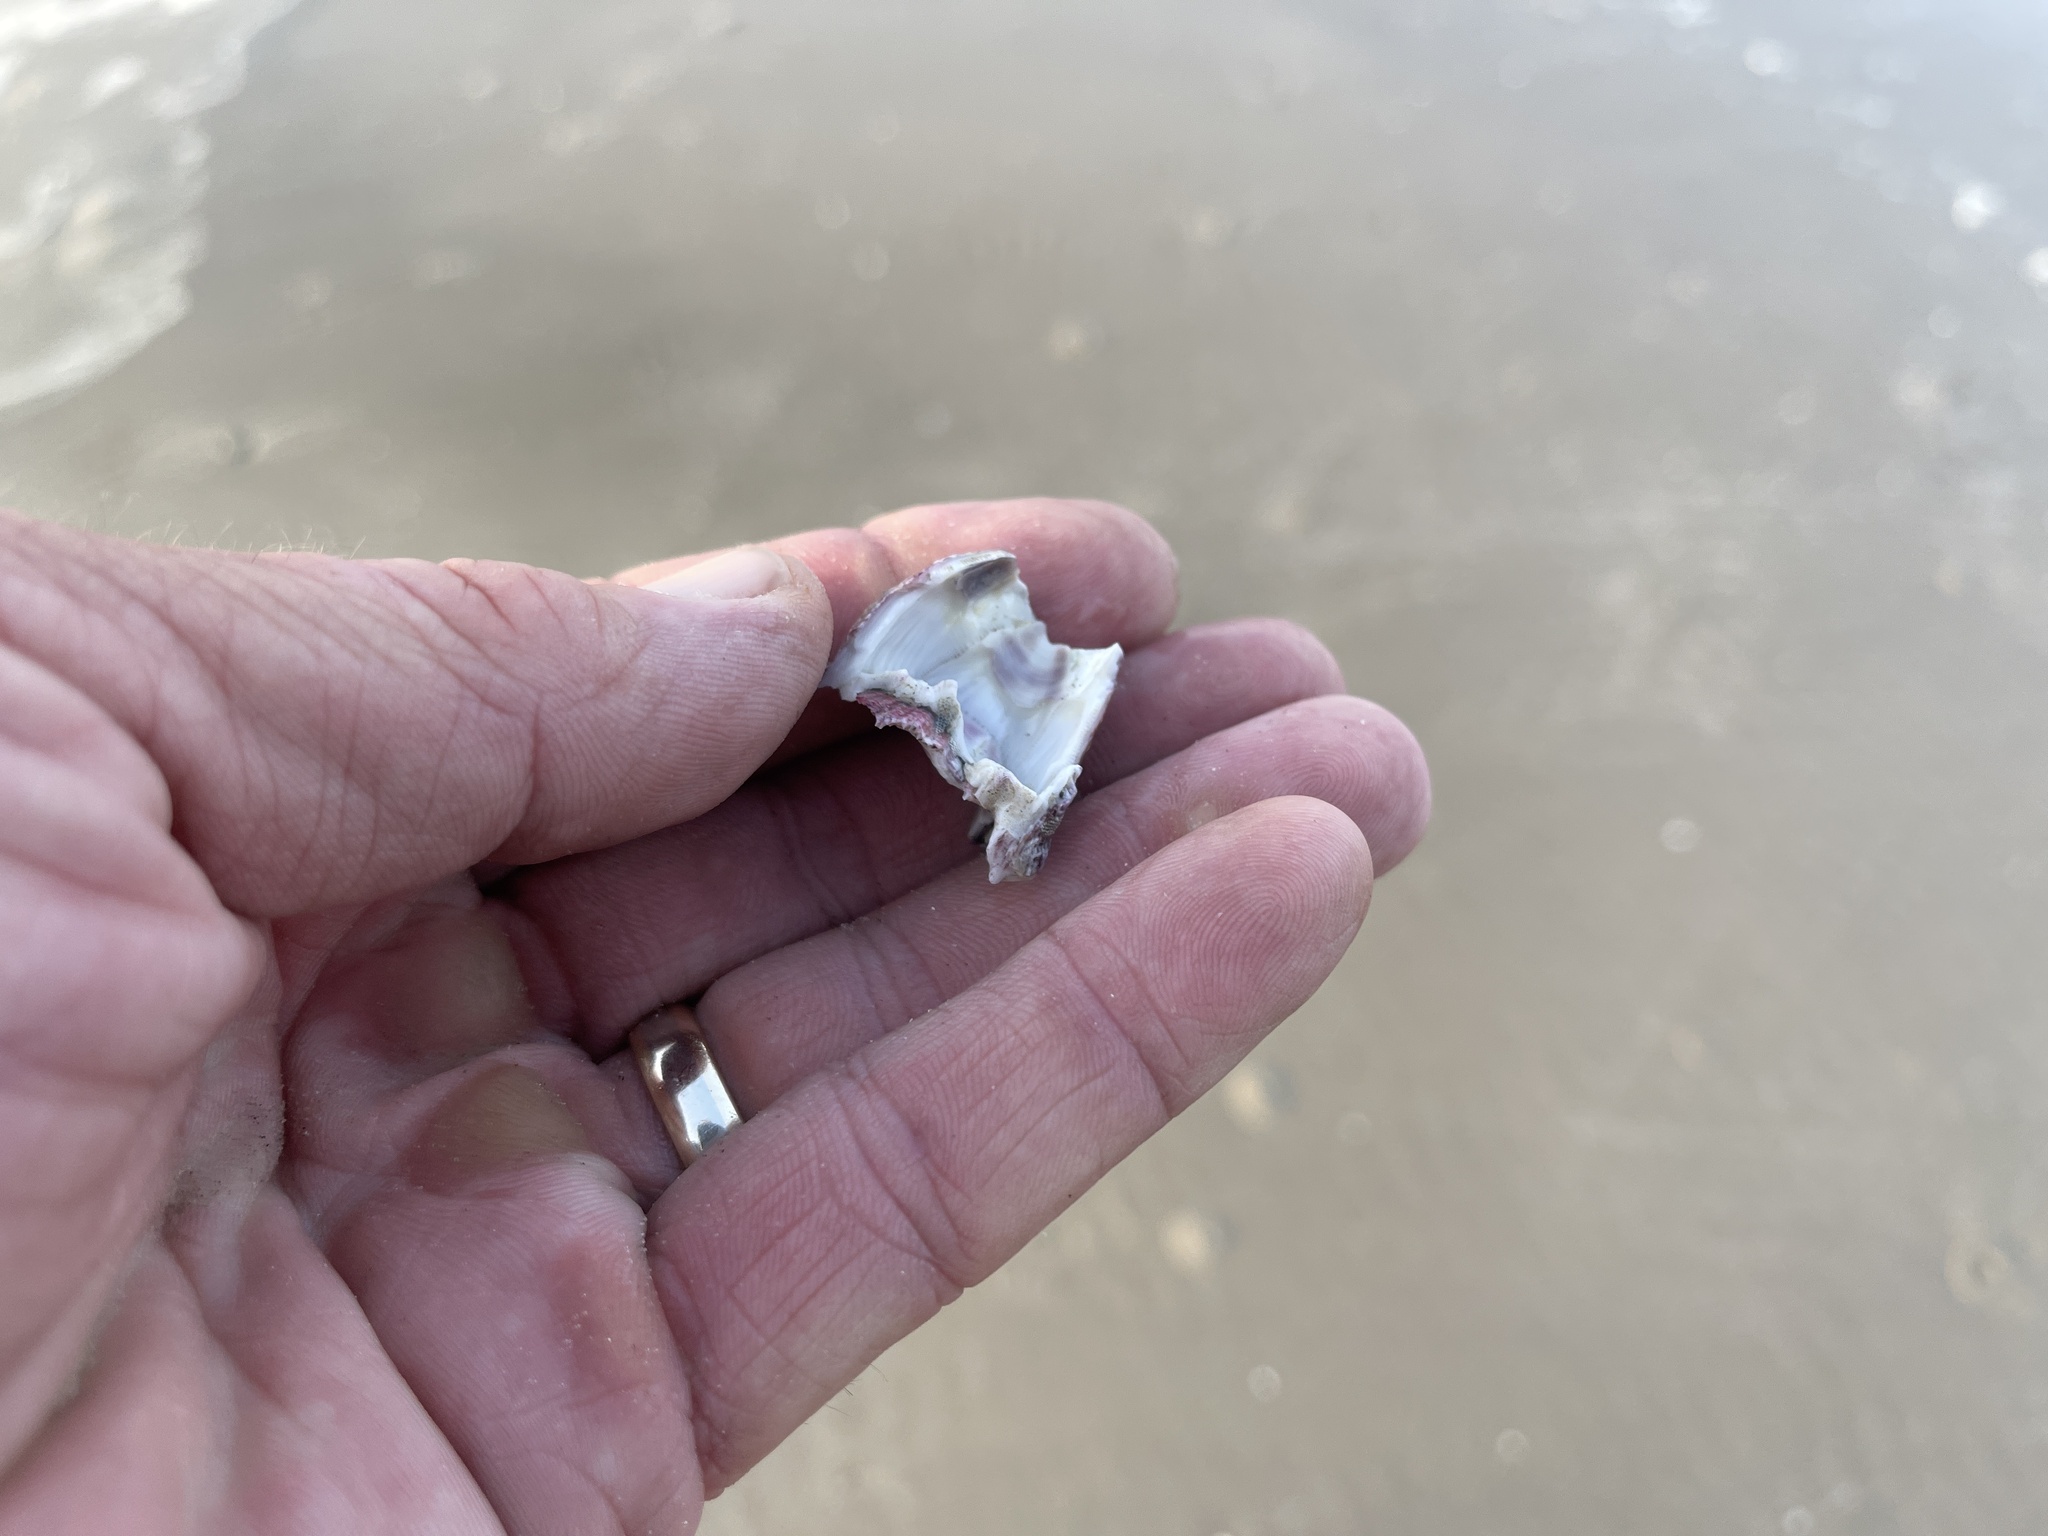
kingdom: Animalia
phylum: Arthropoda
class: Maxillopoda
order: Sessilia
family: Balanidae
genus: Megabalanus
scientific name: Megabalanus tintinnabulum
